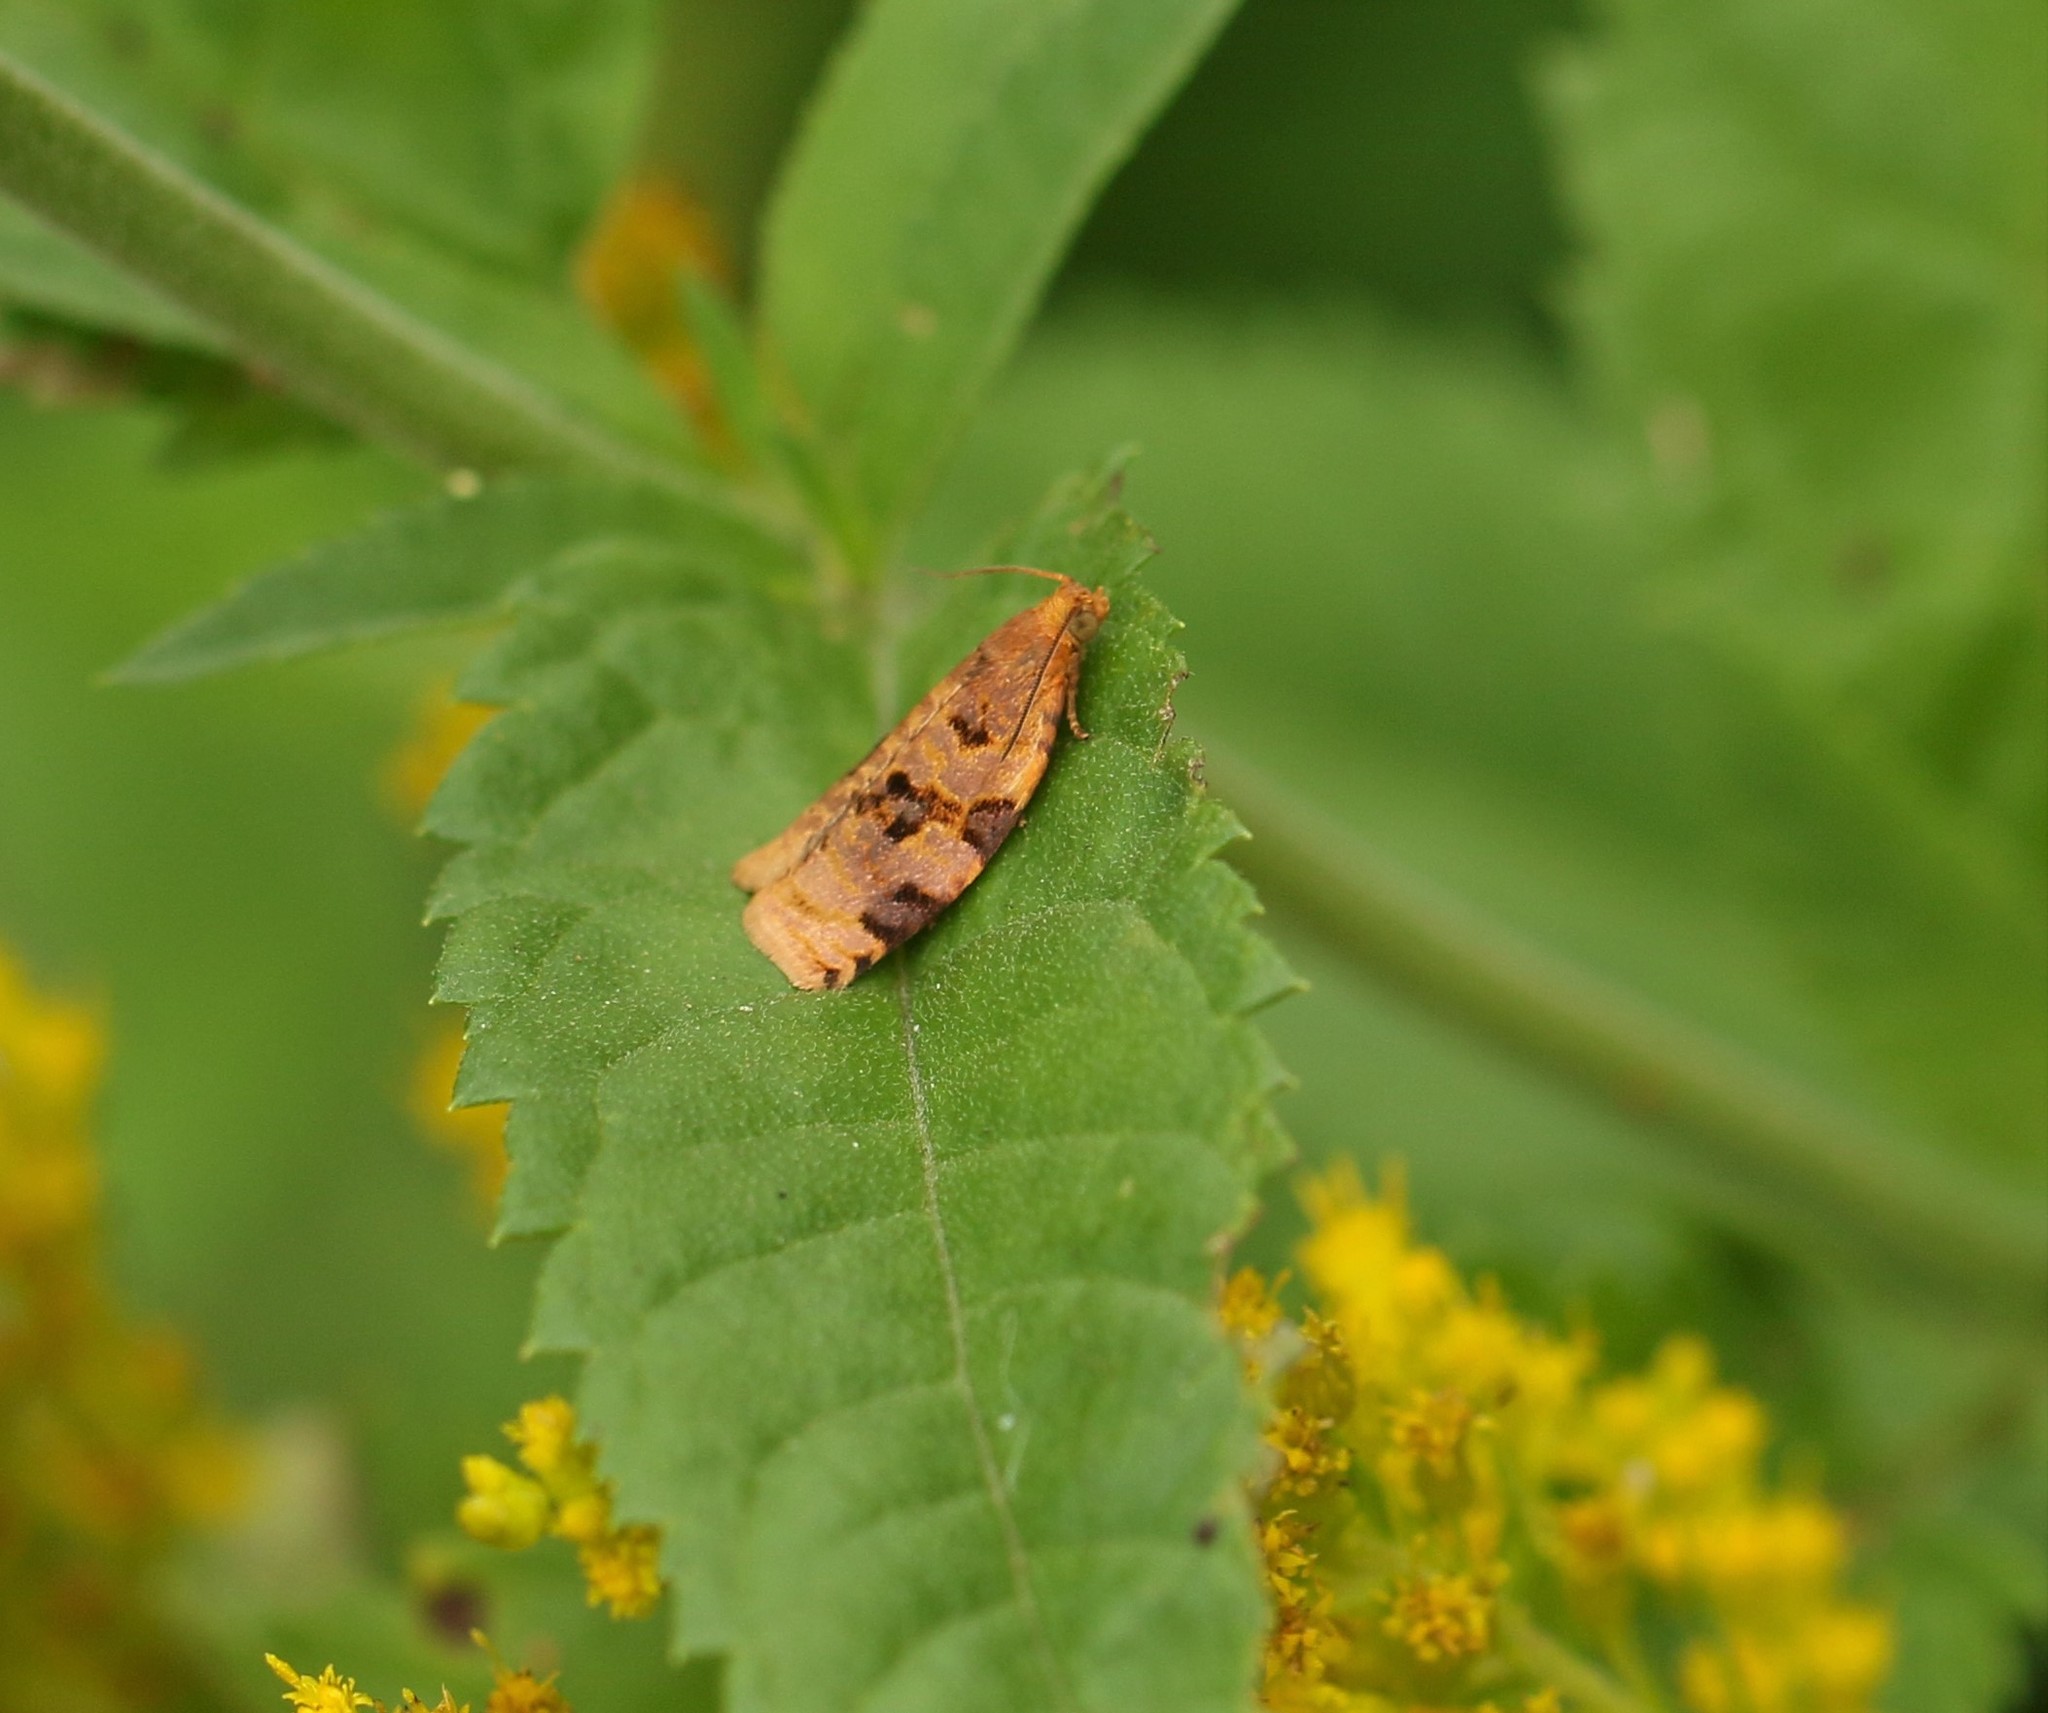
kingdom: Animalia
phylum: Arthropoda
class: Insecta
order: Lepidoptera
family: Tortricidae
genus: Archips
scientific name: Archips cerasivorana
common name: Uglynest caterpillar
